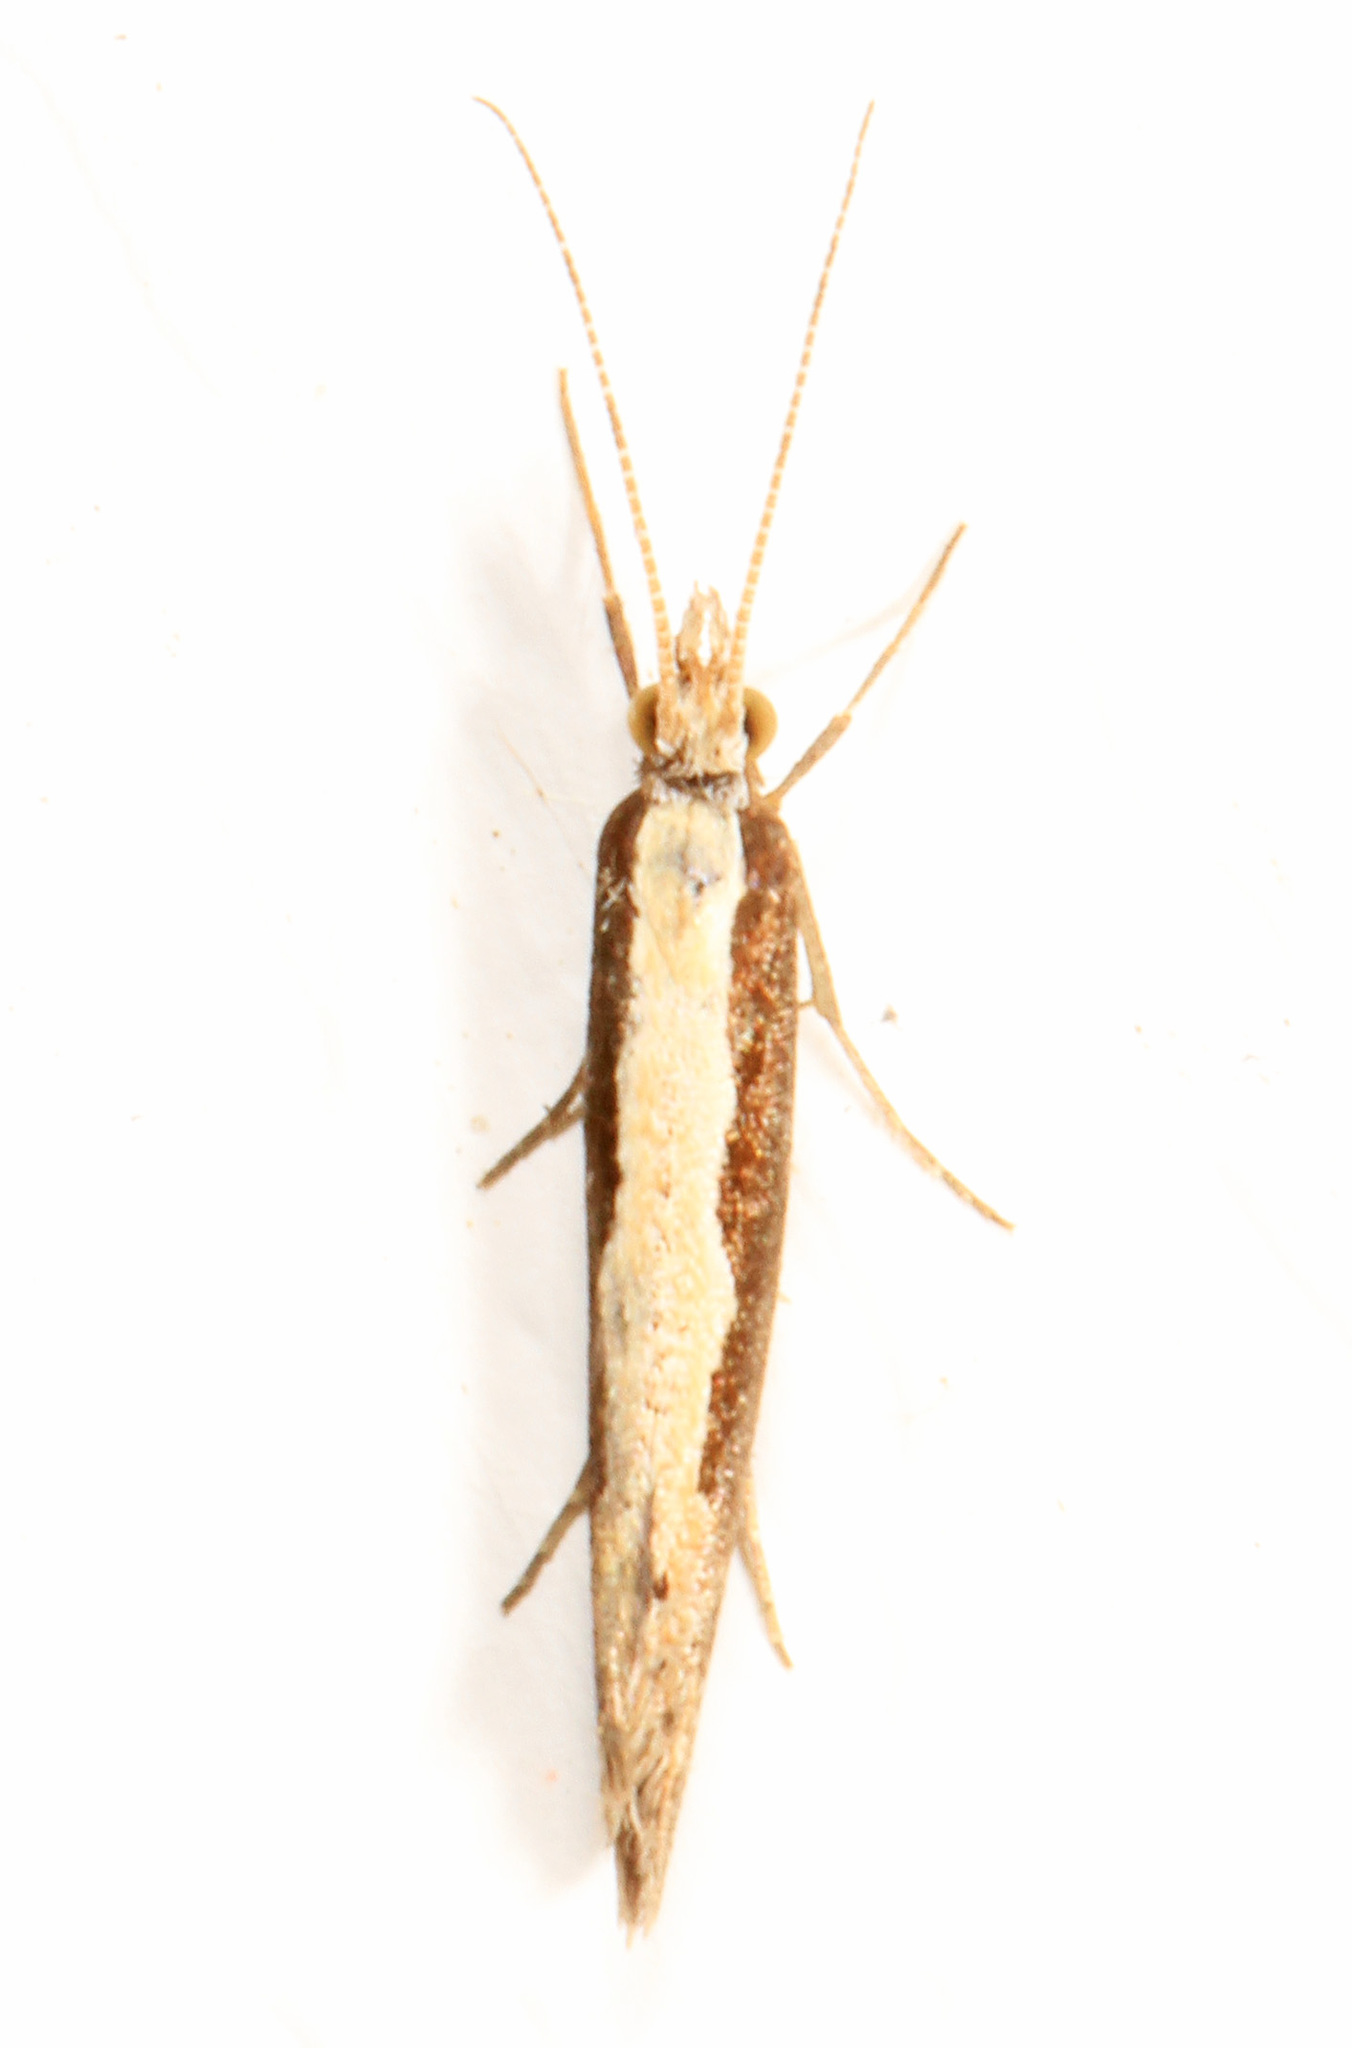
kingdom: Animalia
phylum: Arthropoda
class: Insecta
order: Lepidoptera
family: Plutellidae
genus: Plutella
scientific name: Plutella xylostella
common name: Diamond-back moth
